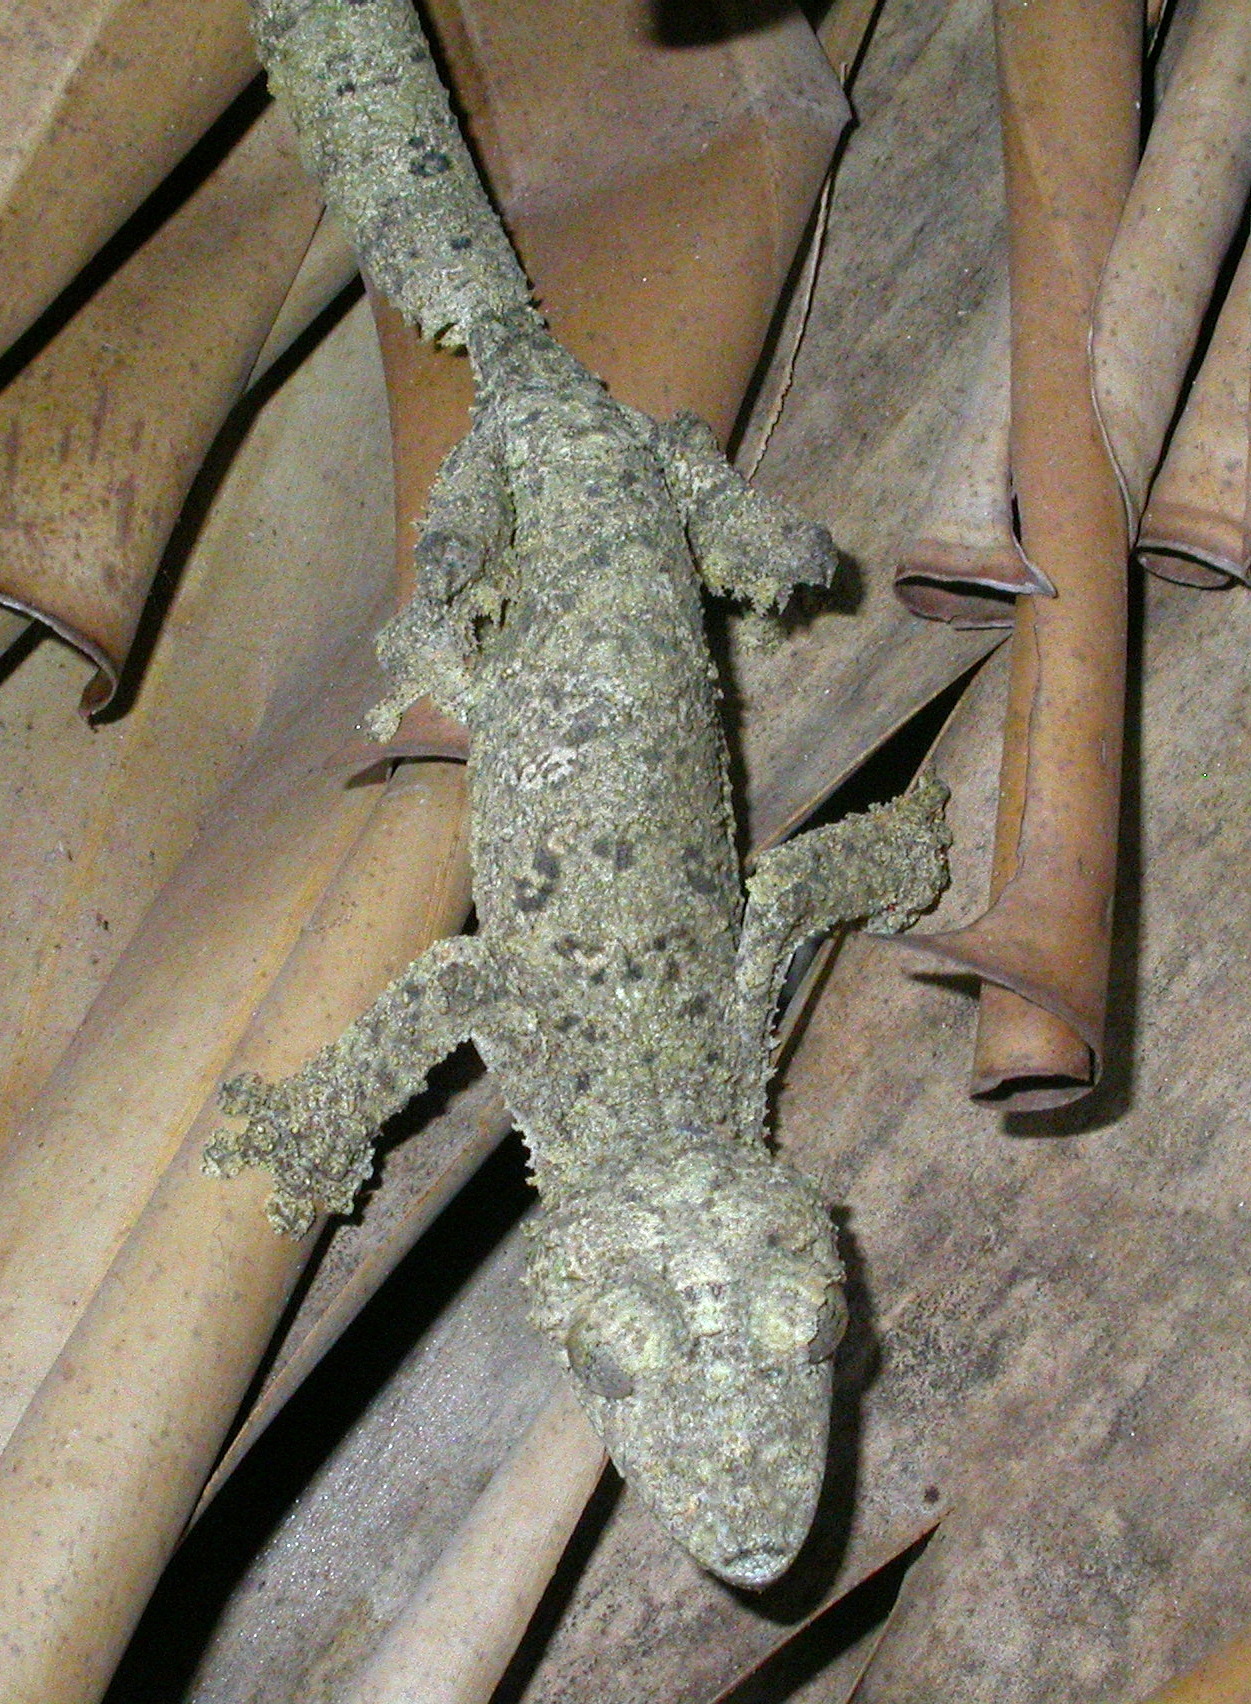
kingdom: Animalia
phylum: Chordata
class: Squamata
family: Gekkonidae
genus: Uroplatus
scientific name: Uroplatus sikorae
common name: Southern flat-tail gecko
